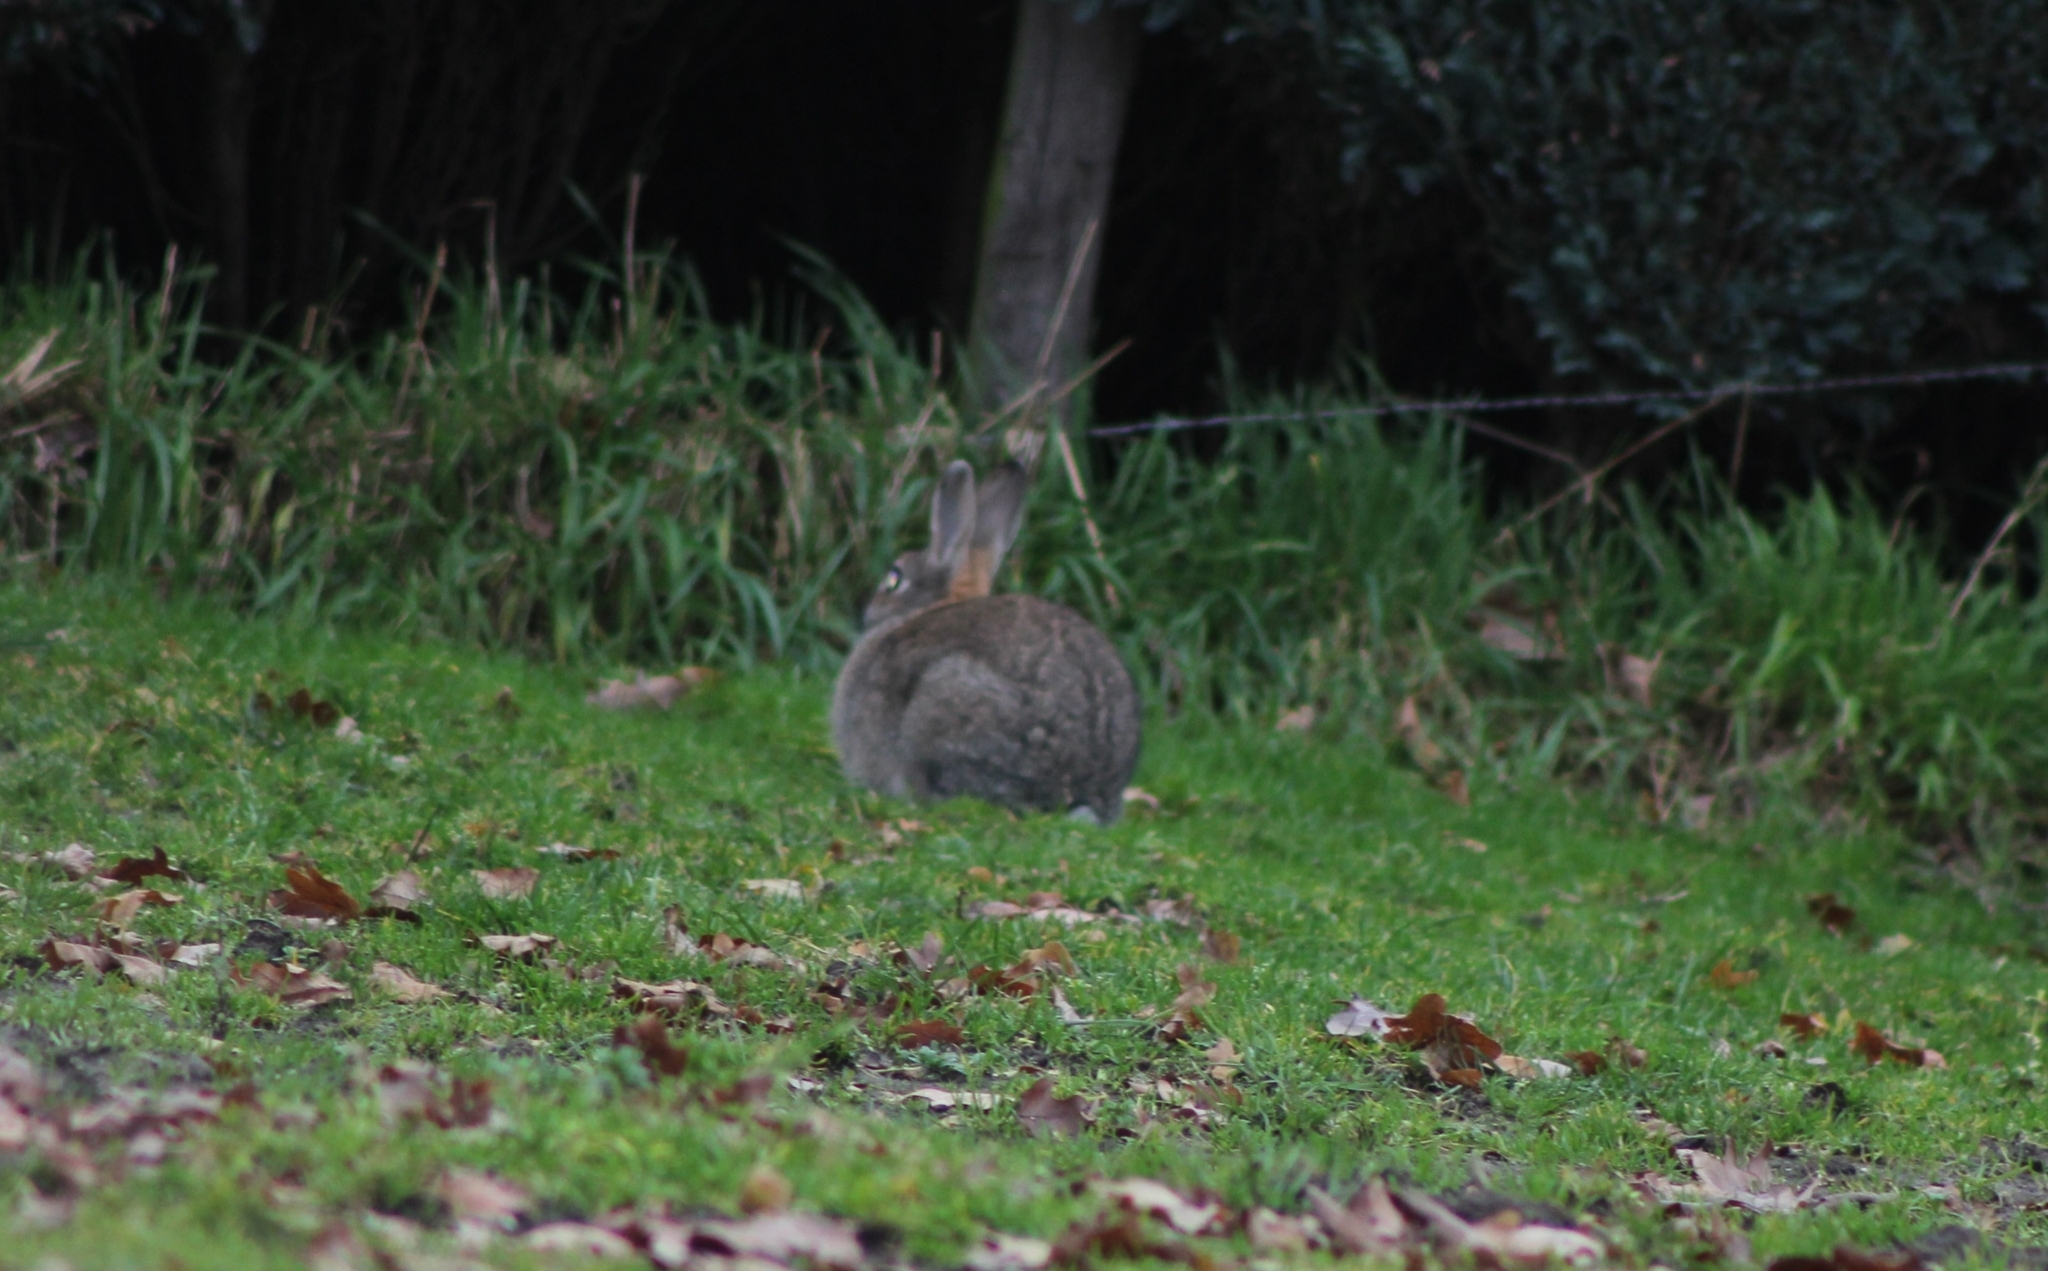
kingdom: Animalia
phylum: Chordata
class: Mammalia
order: Lagomorpha
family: Leporidae
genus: Oryctolagus
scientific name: Oryctolagus cuniculus
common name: European rabbit
